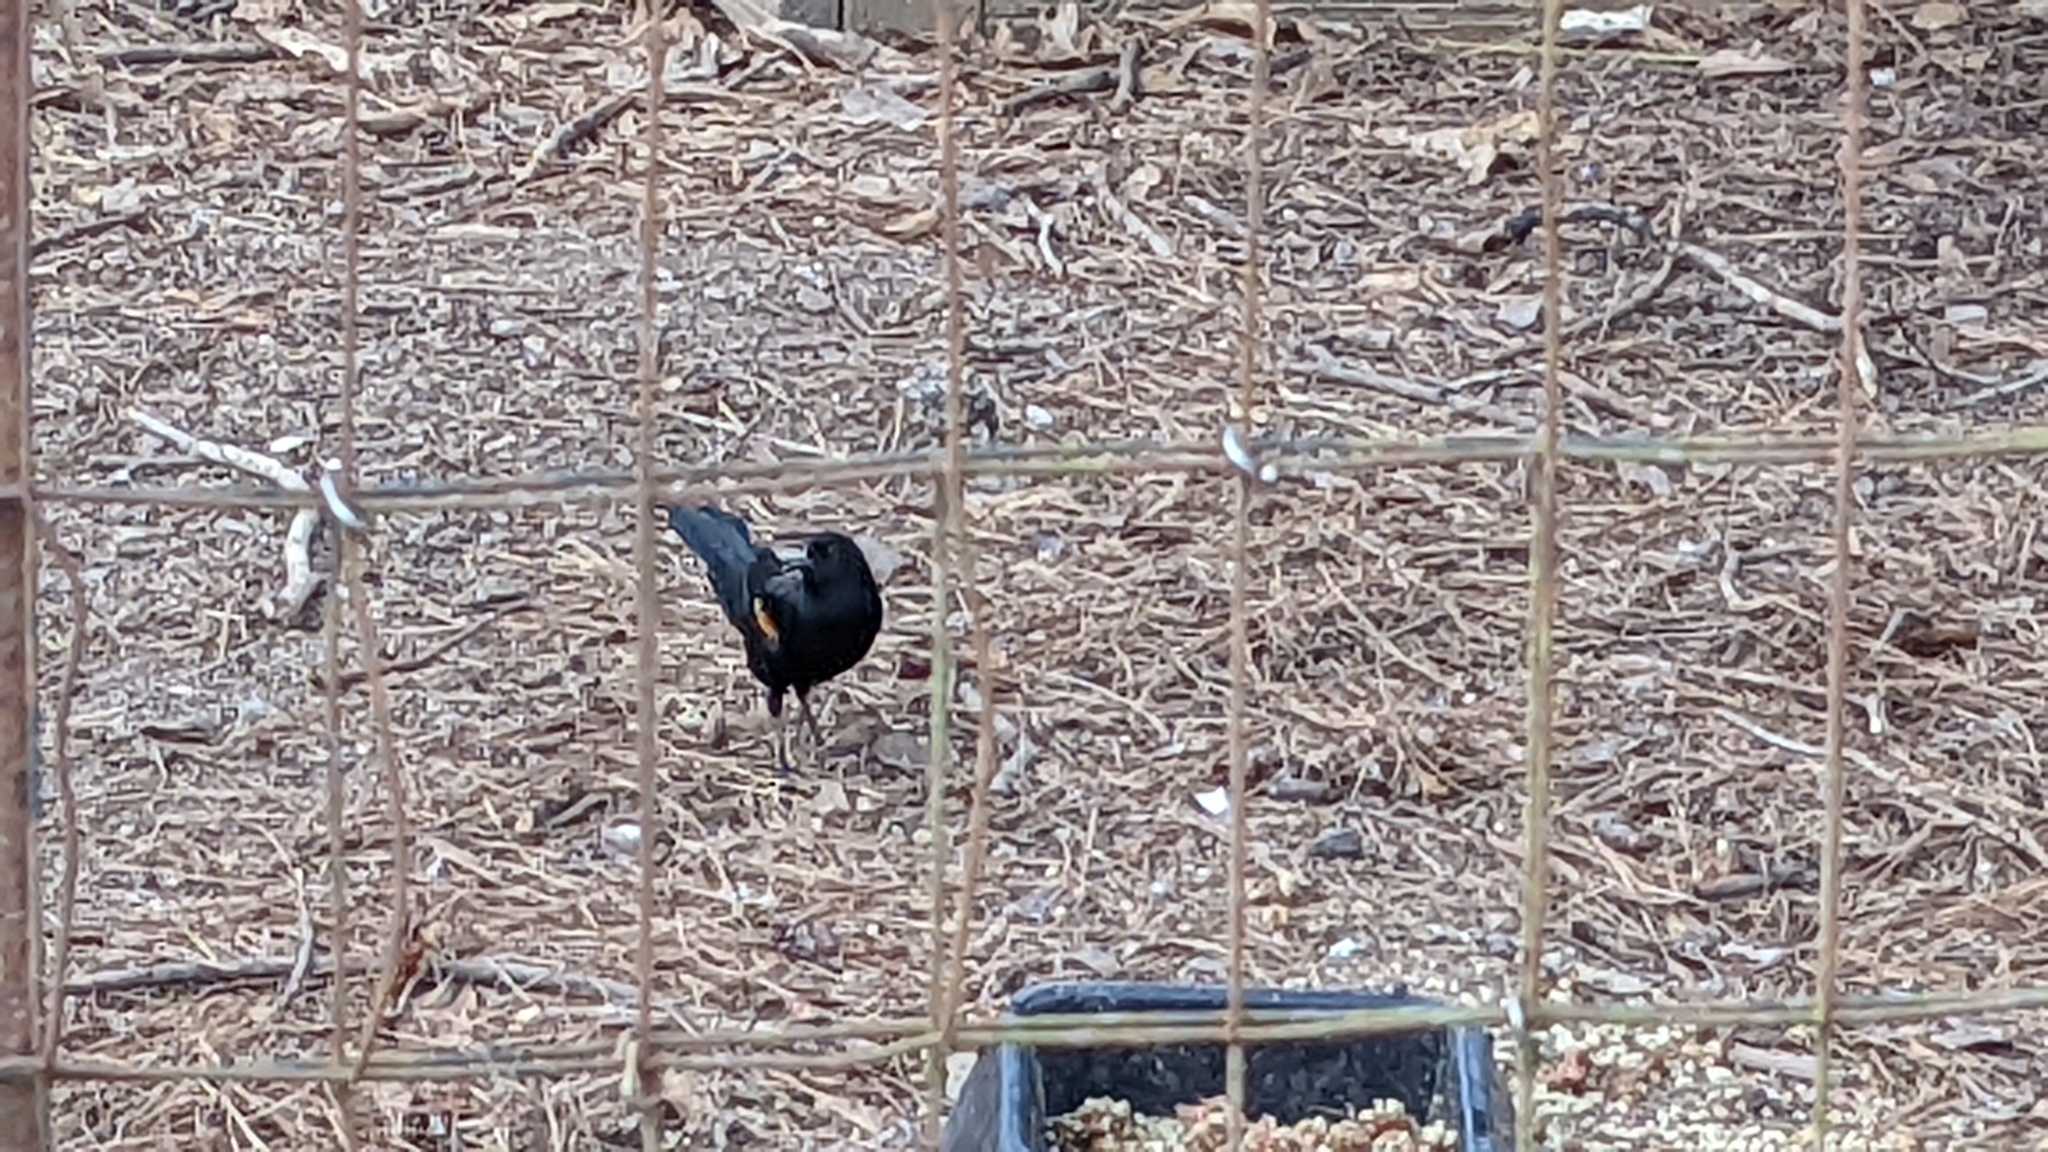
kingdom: Animalia
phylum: Chordata
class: Aves
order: Passeriformes
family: Icteridae
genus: Agelaius
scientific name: Agelaius phoeniceus
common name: Red-winged blackbird
